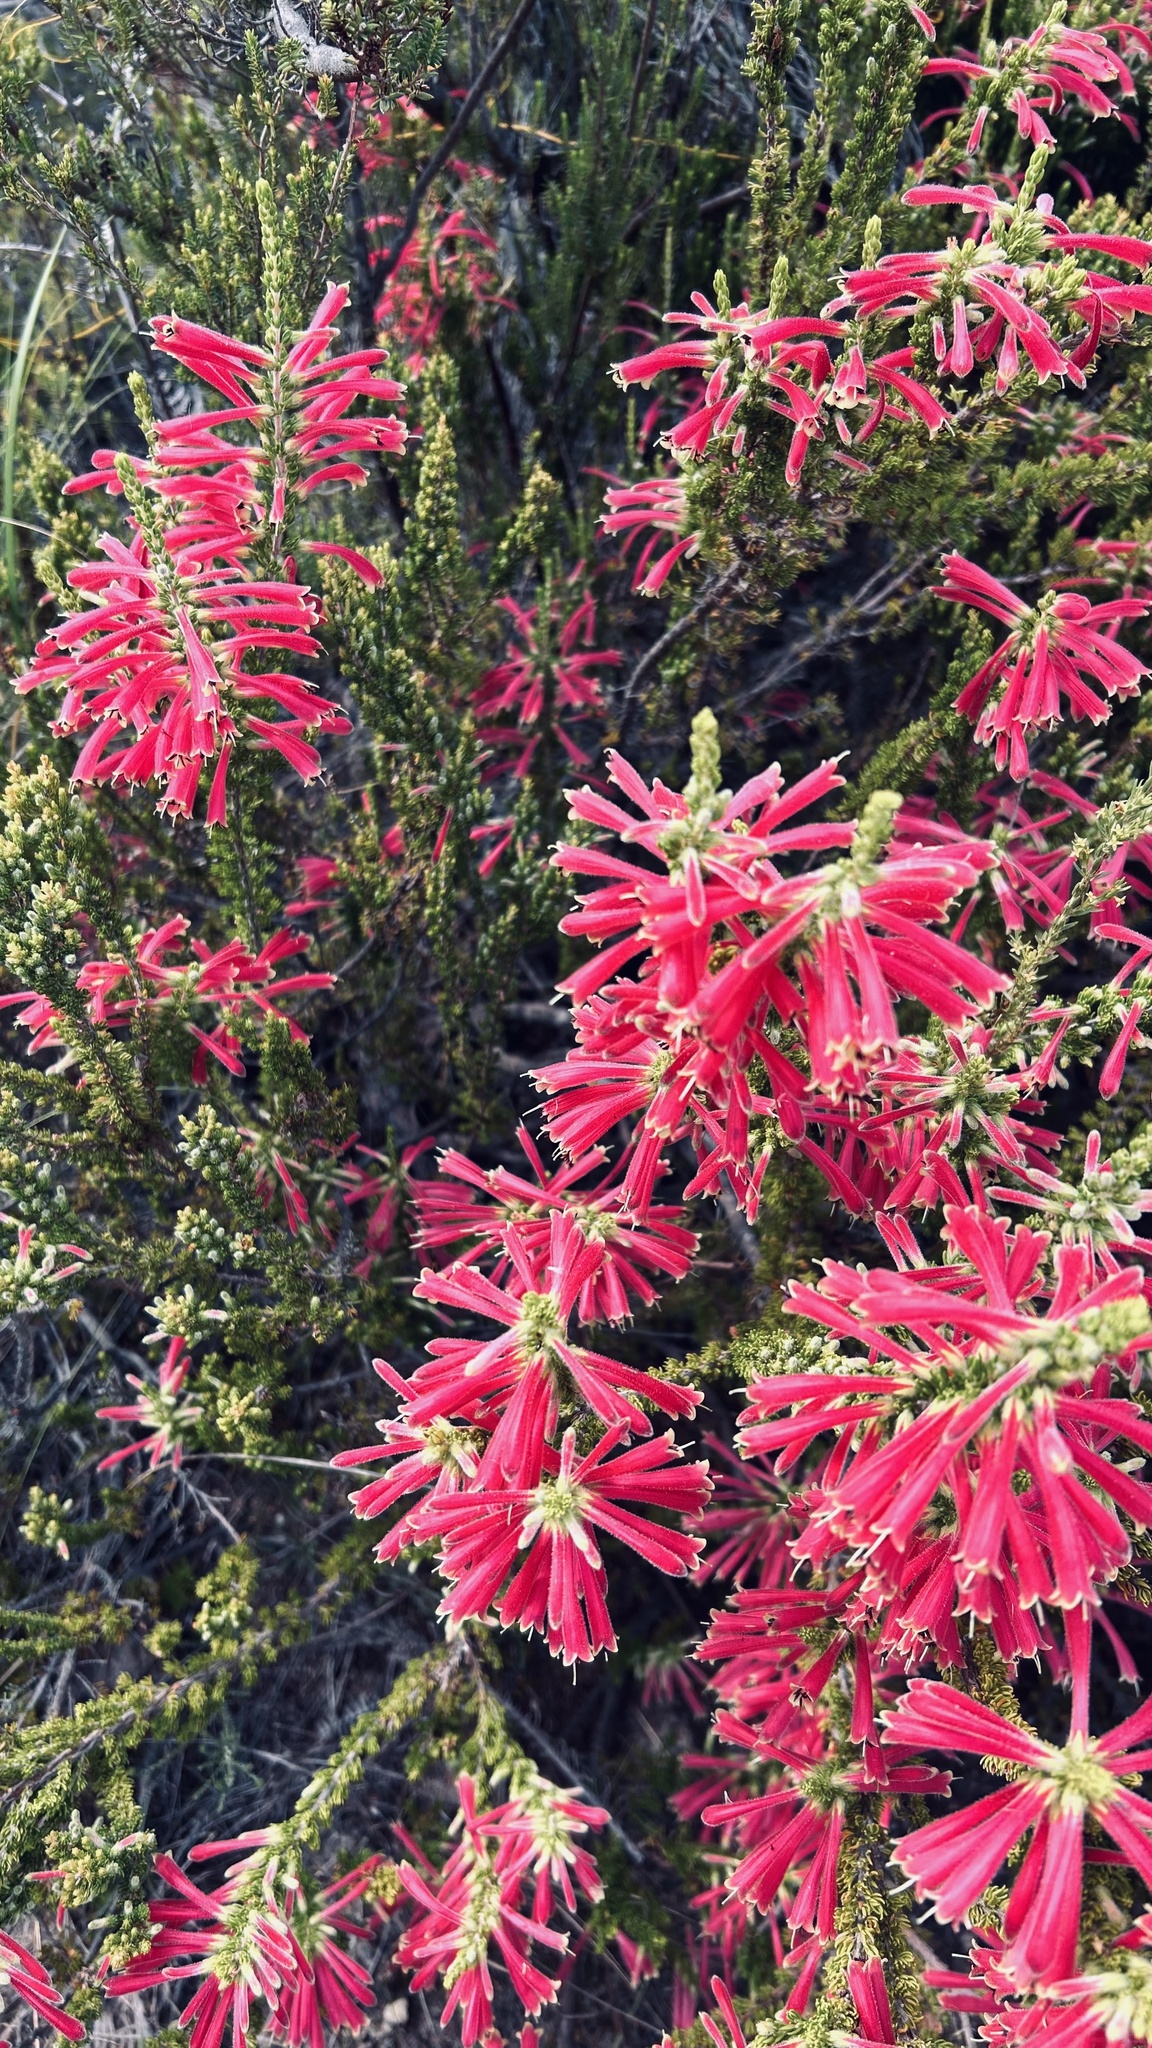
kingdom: Plantae
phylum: Tracheophyta
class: Magnoliopsida
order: Ericales
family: Ericaceae
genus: Erica
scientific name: Erica densifolia
